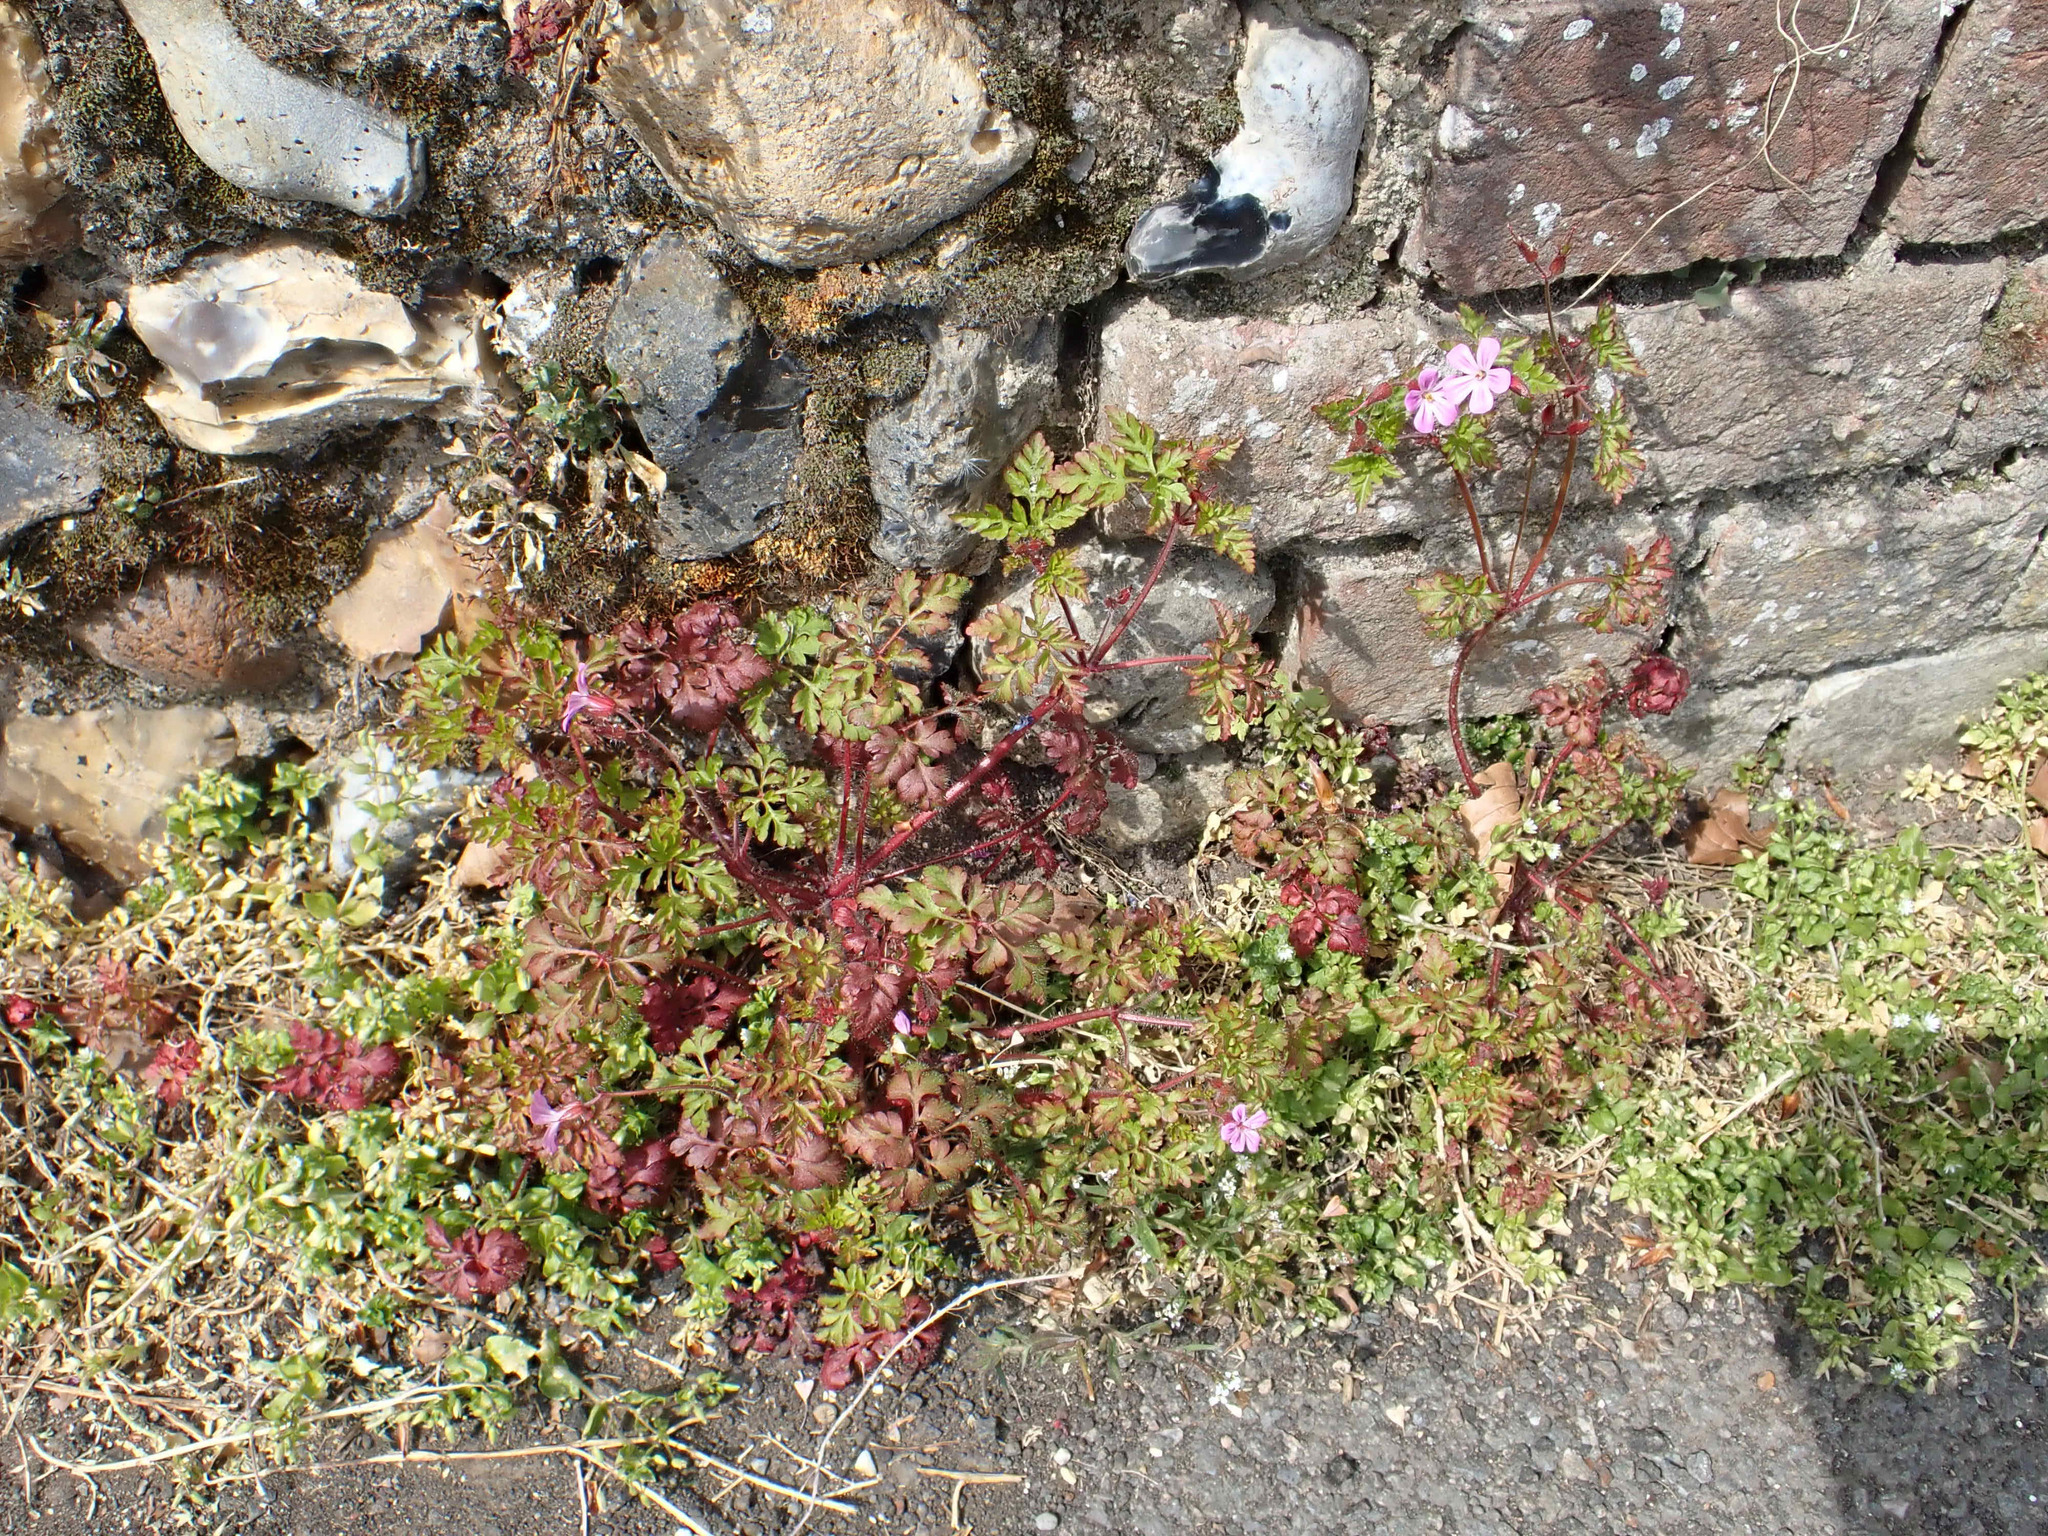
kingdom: Plantae
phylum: Tracheophyta
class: Magnoliopsida
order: Geraniales
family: Geraniaceae
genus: Geranium
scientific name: Geranium robertianum
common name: Herb-robert
